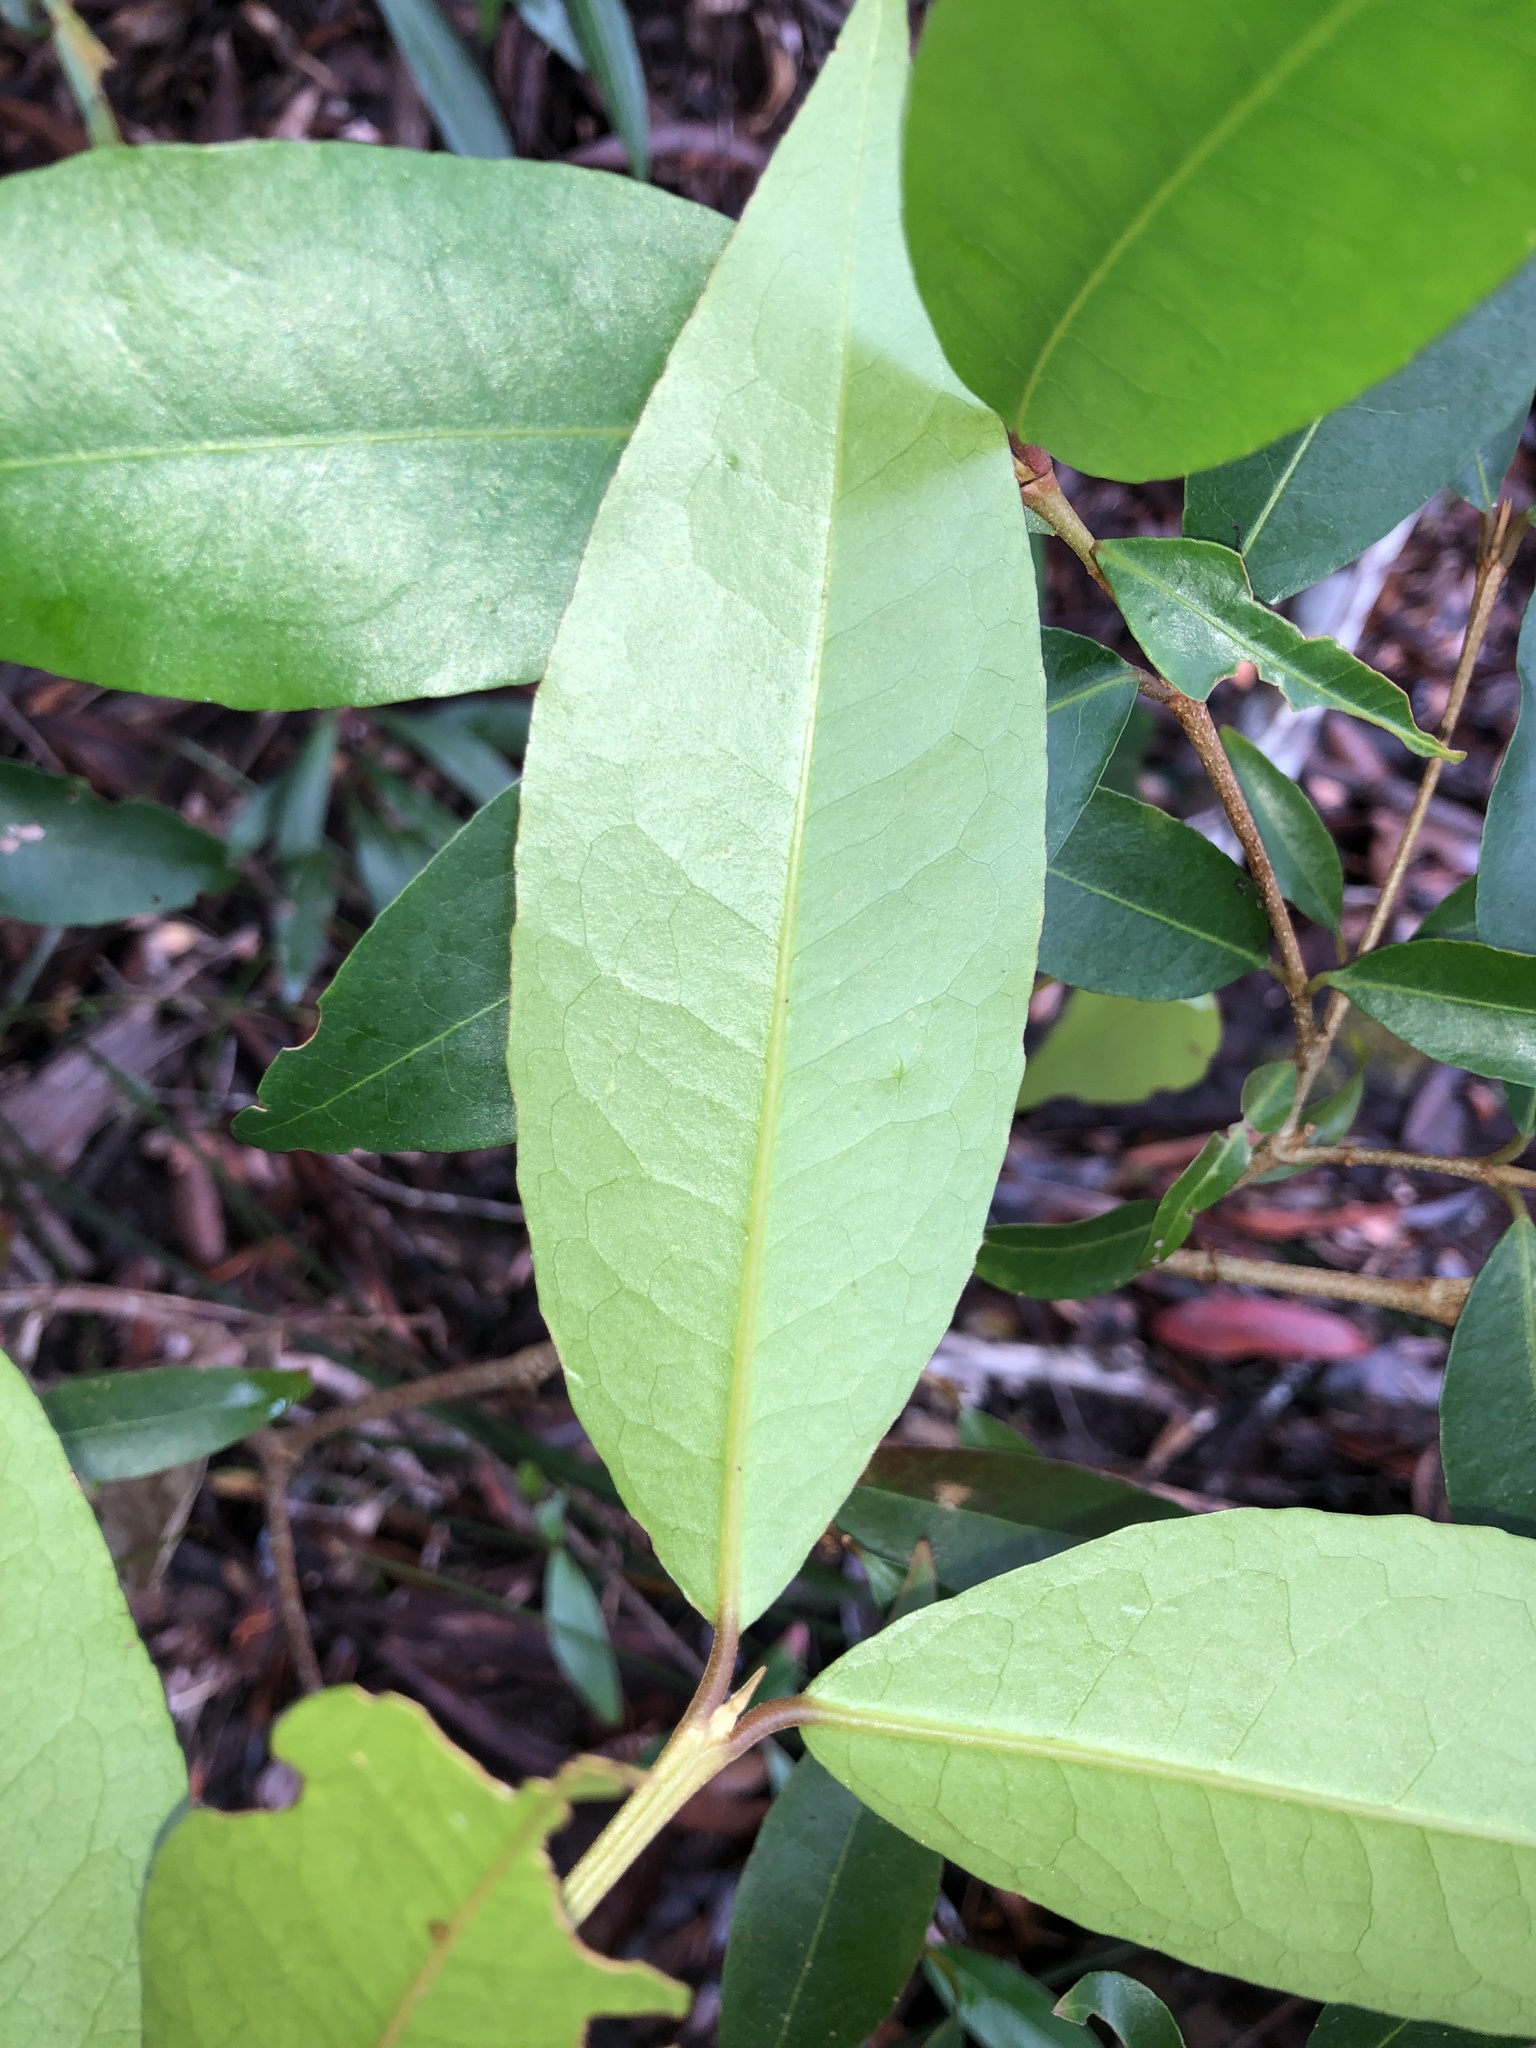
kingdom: Plantae
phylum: Tracheophyta
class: Magnoliopsida
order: Malpighiales
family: Picrodendraceae
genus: Austrobuxus
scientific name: Austrobuxus swainii
